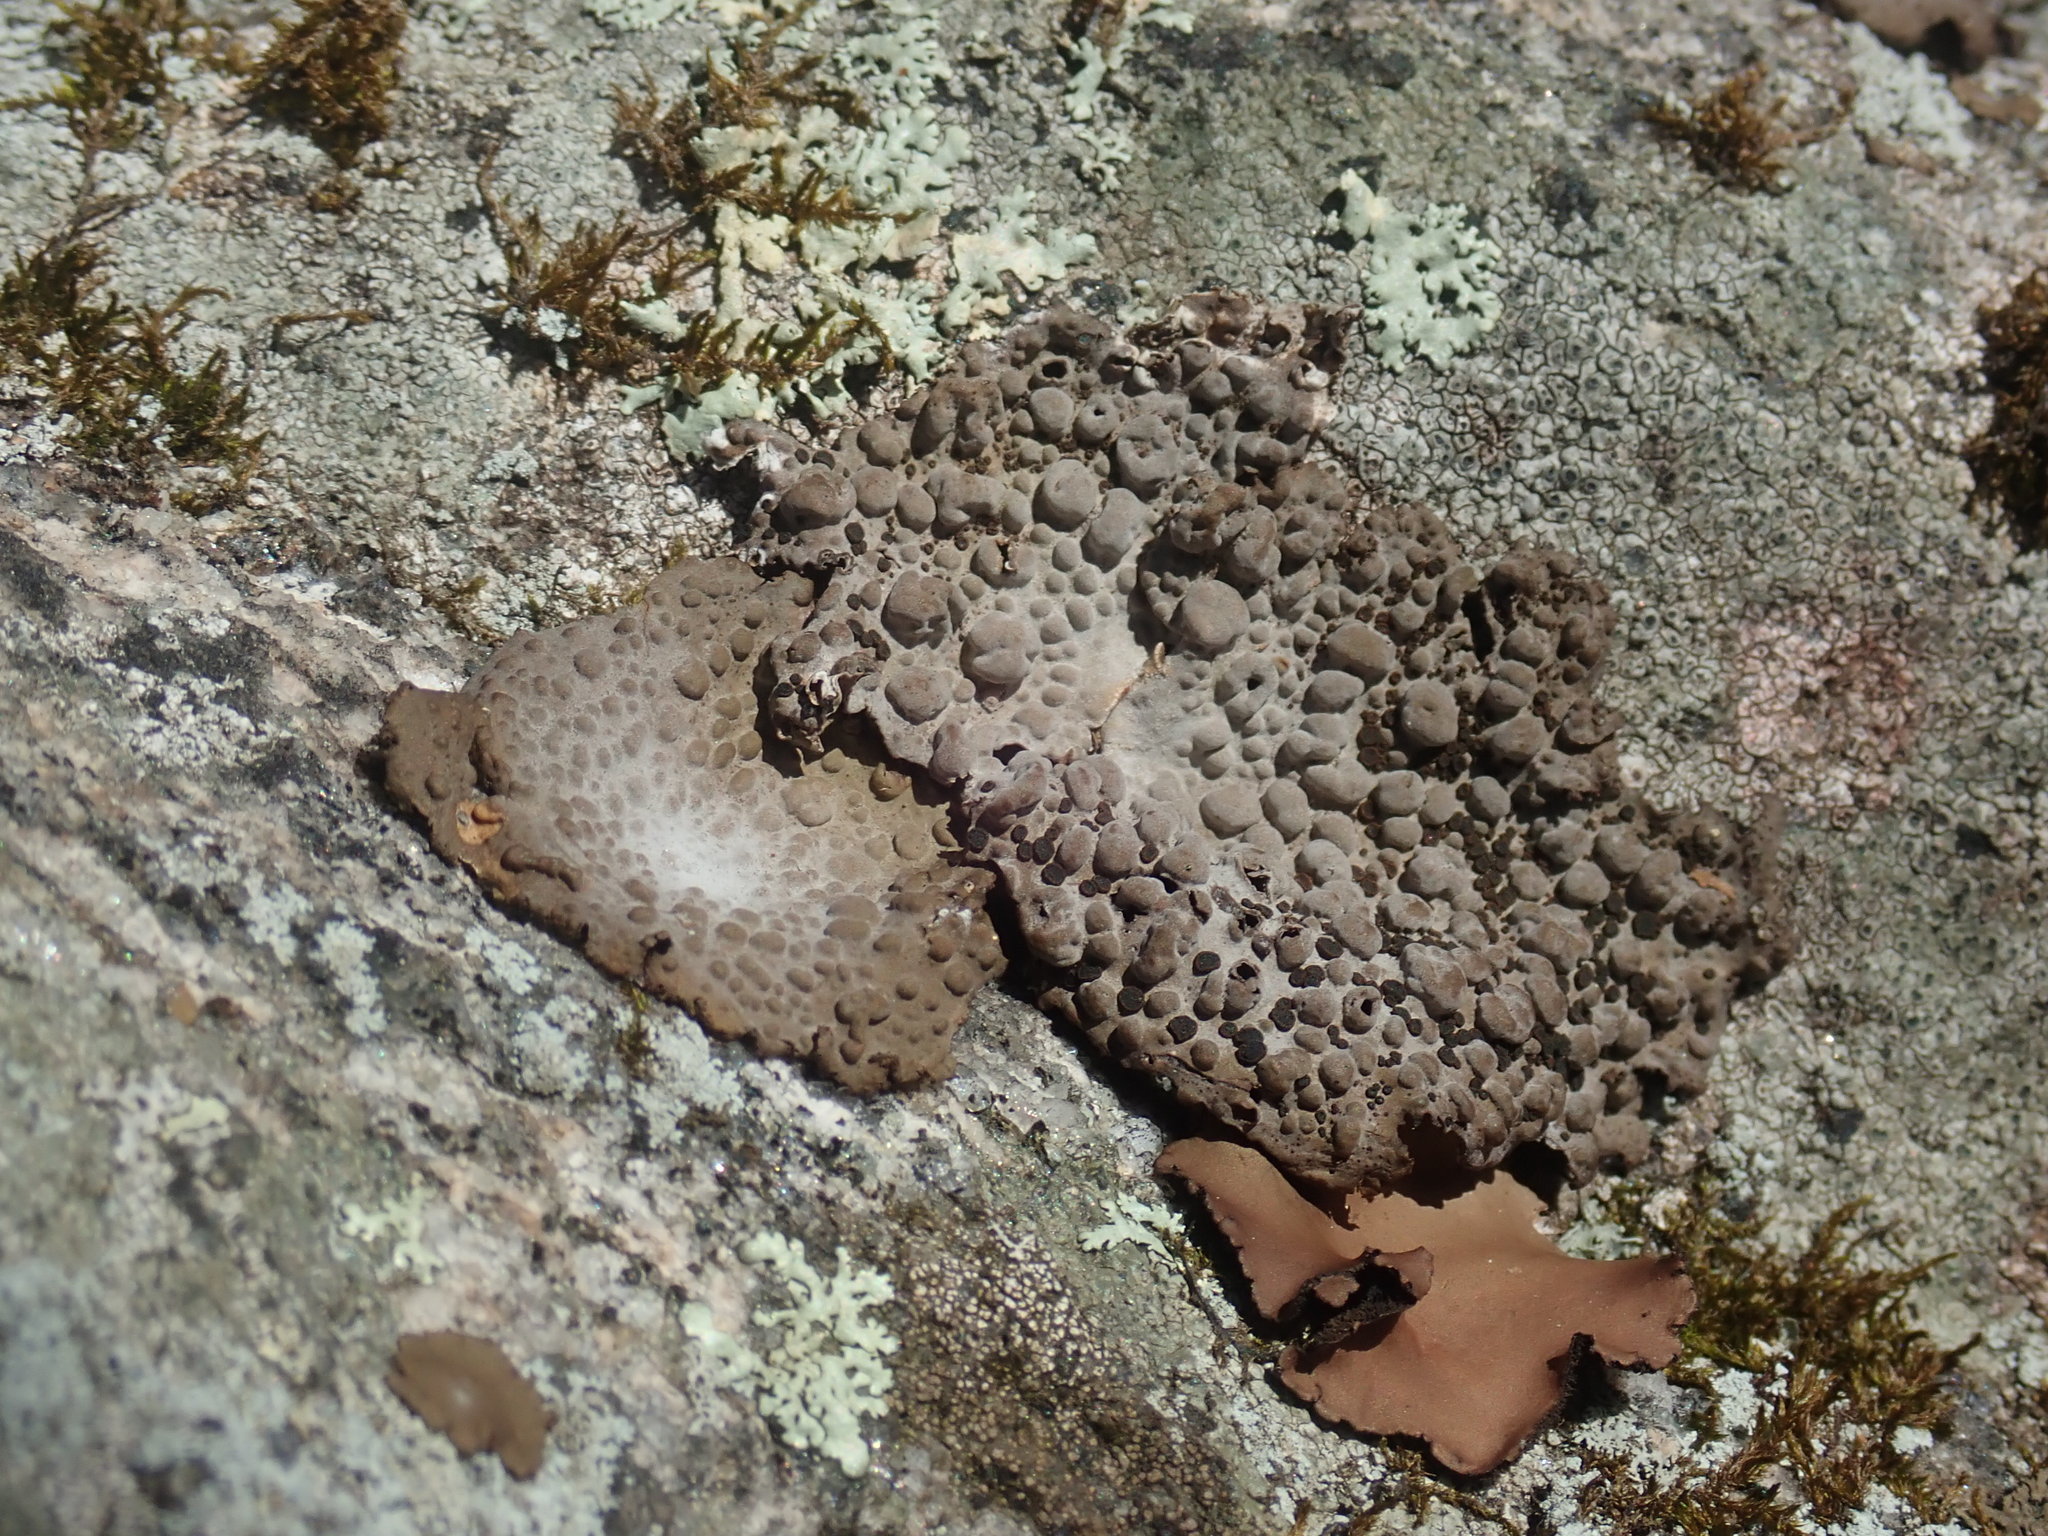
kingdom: Fungi
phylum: Ascomycota
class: Lecanoromycetes
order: Umbilicariales
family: Umbilicariaceae
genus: Lasallia
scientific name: Lasallia papulosa
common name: Common toadskin lichen
